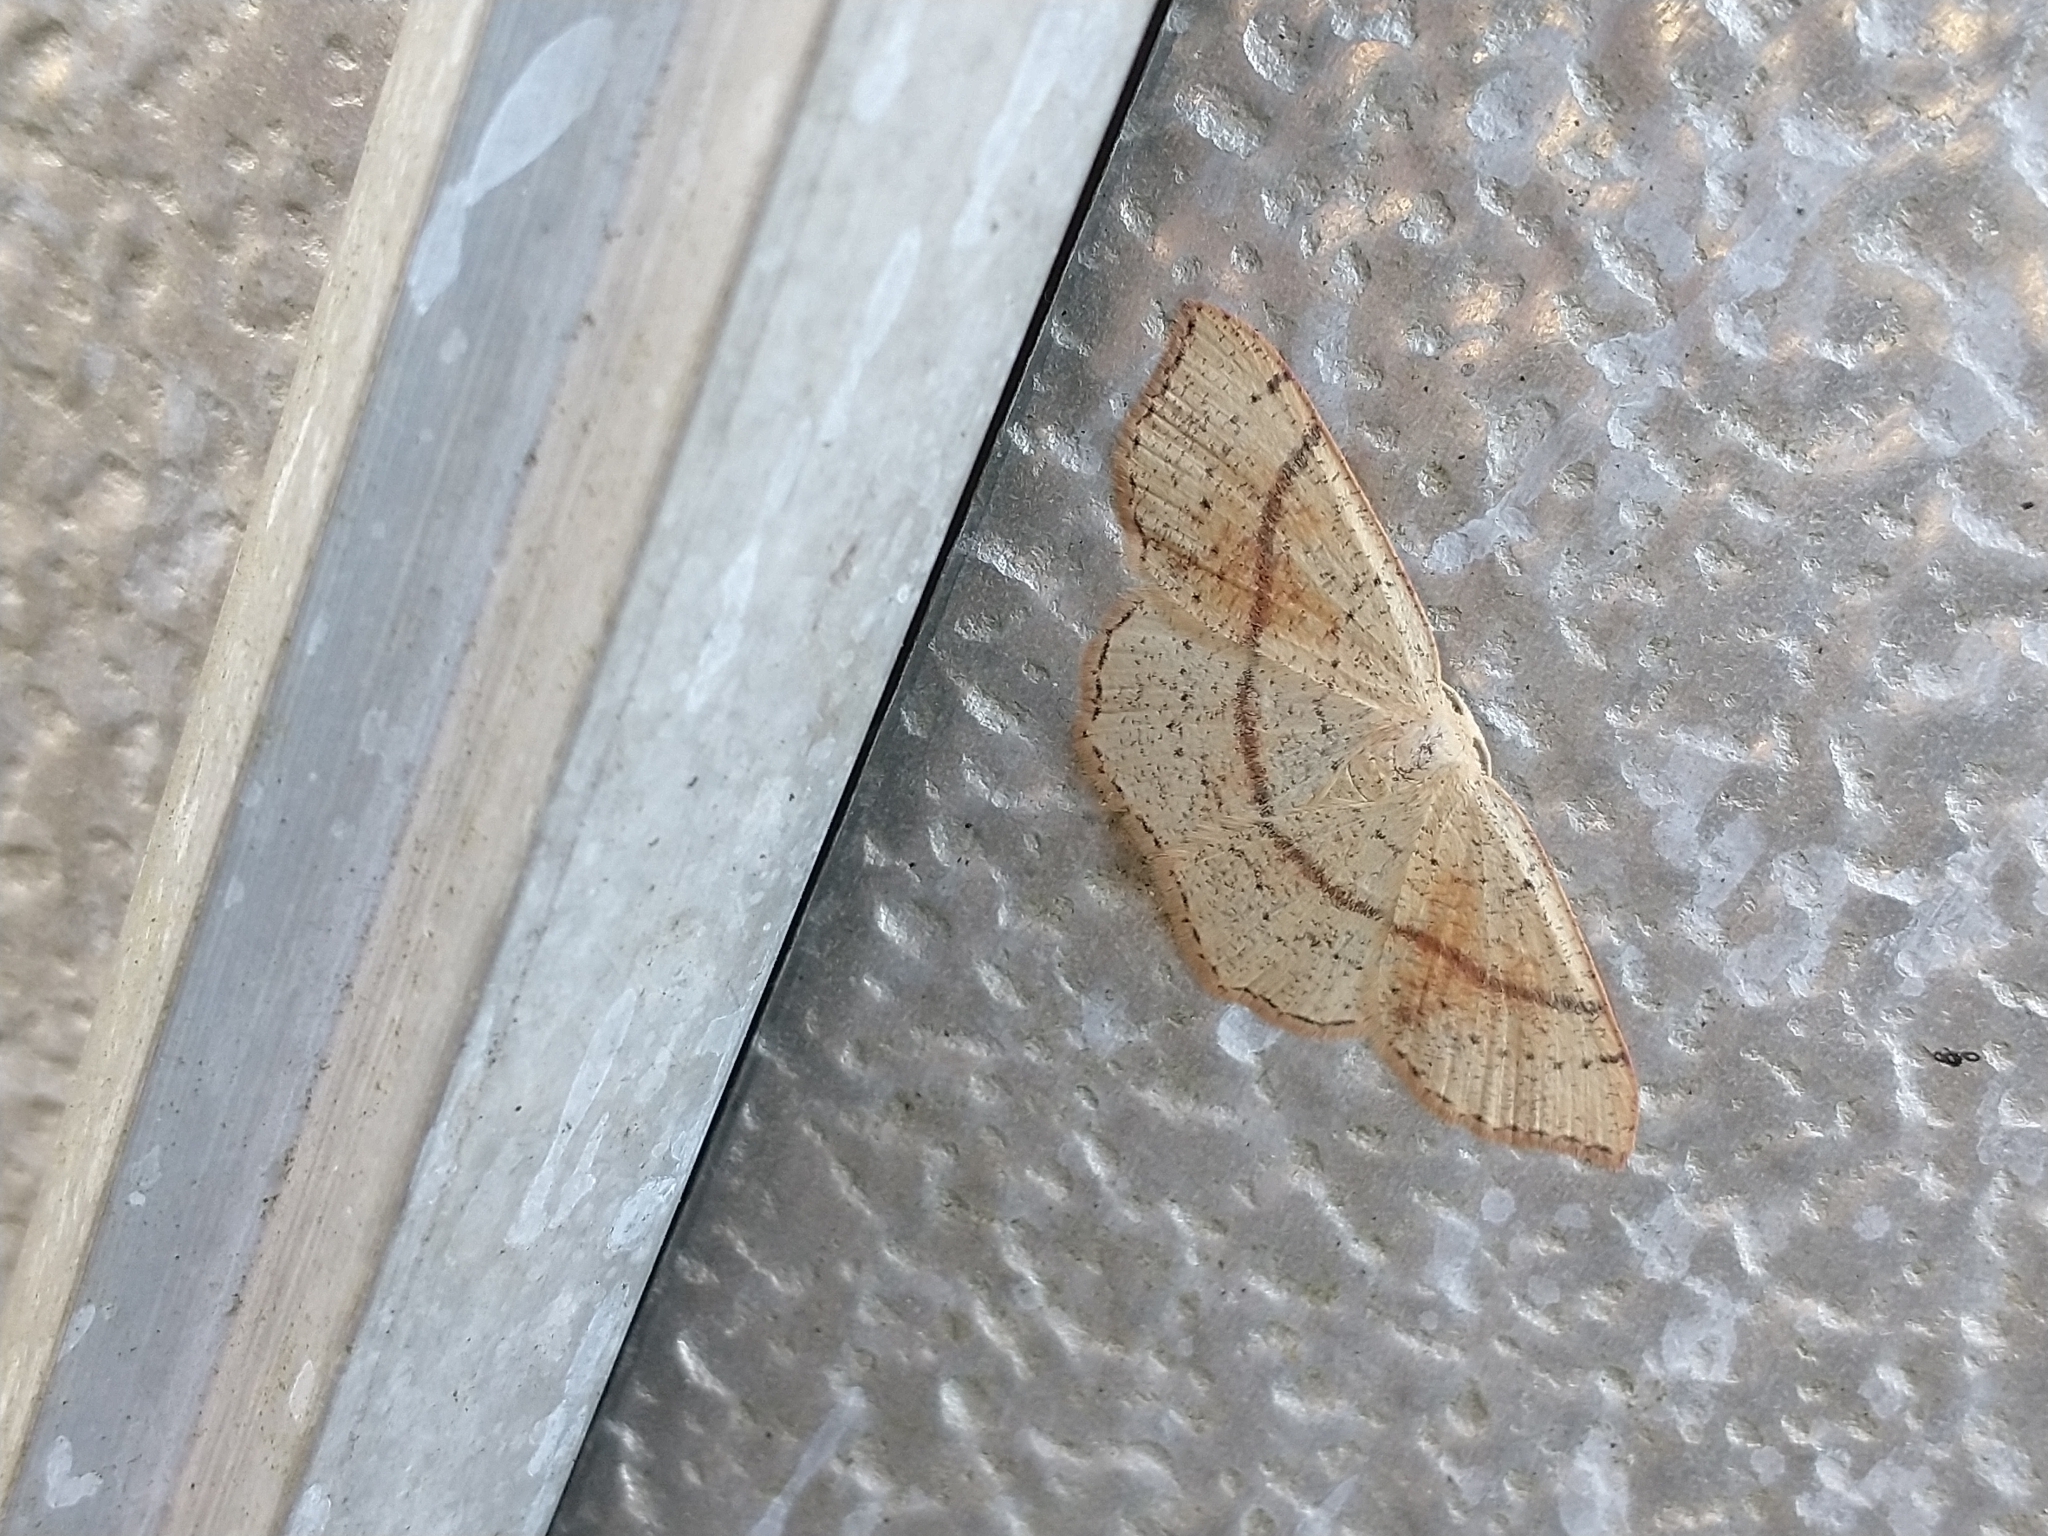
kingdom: Animalia
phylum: Arthropoda
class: Insecta
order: Lepidoptera
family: Geometridae
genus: Cyclophora
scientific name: Cyclophora punctaria
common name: Maiden's blush
